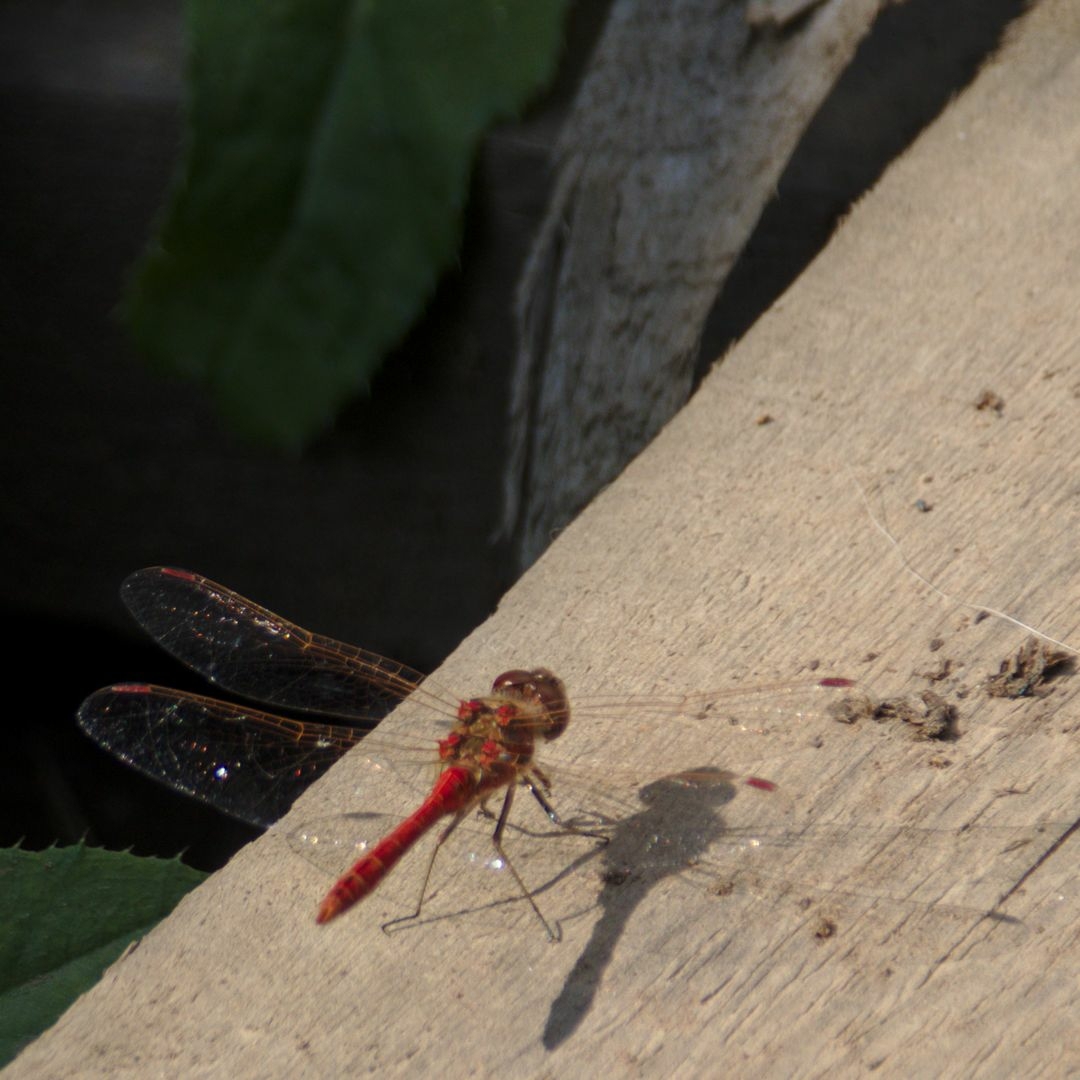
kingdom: Animalia
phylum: Arthropoda
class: Insecta
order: Odonata
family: Libellulidae
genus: Sympetrum
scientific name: Sympetrum vulgatum
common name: Vagrant darter
